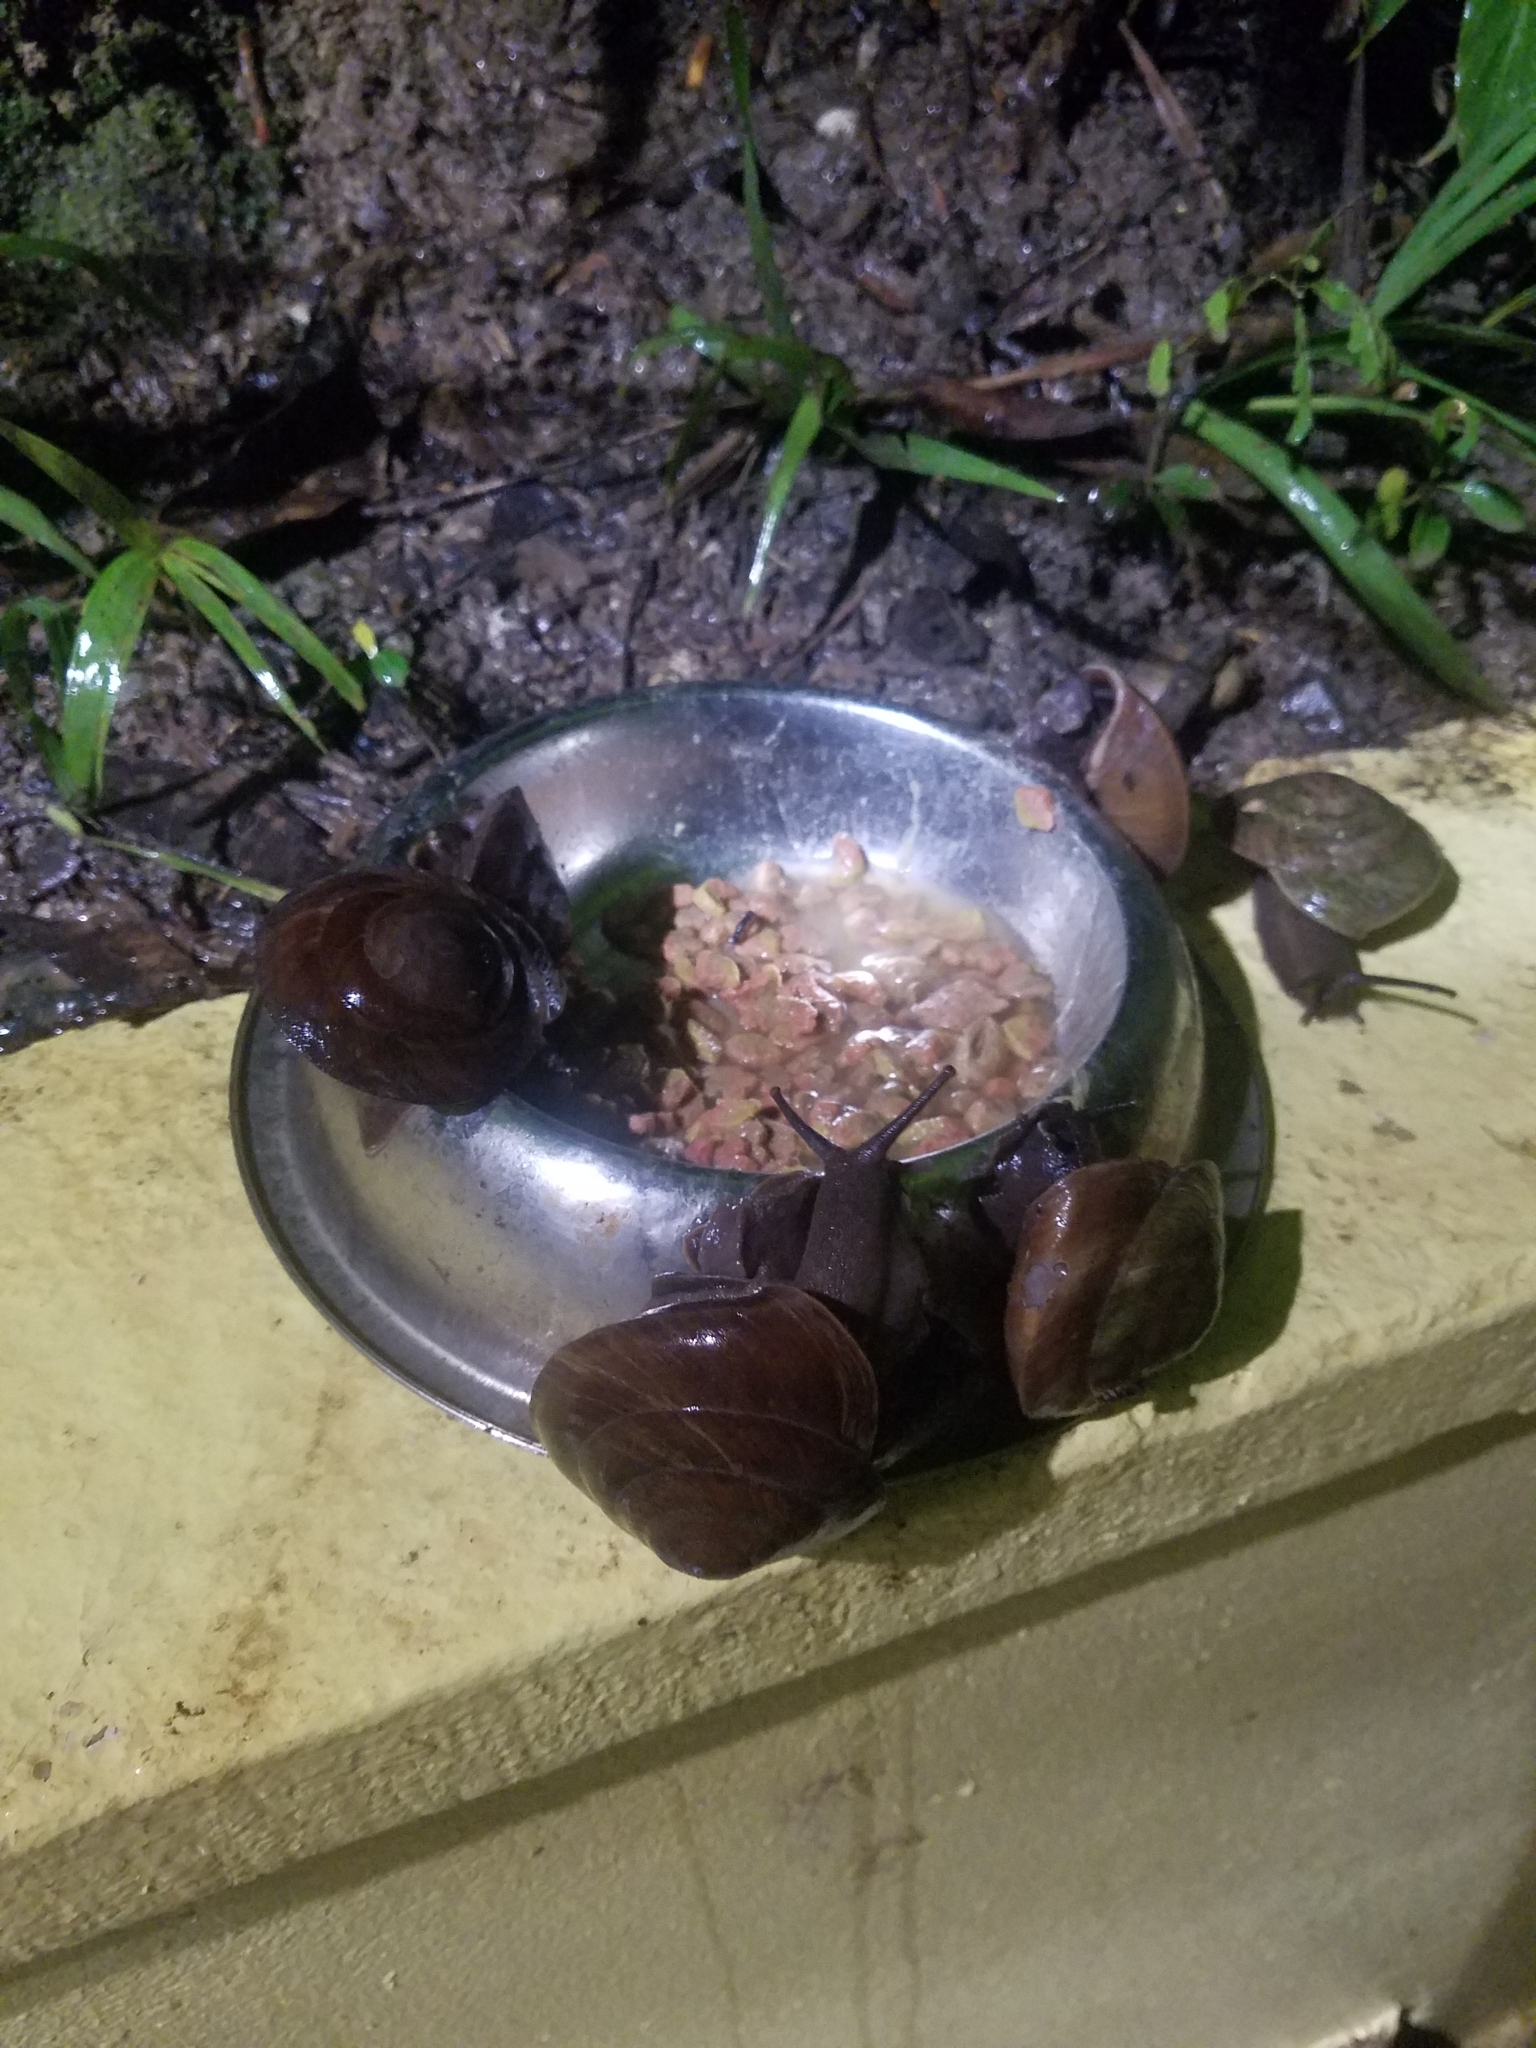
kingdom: Animalia
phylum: Mollusca
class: Gastropoda
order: Stylommatophora
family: Solaropsidae
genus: Caracolus
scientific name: Caracolus carocolla
